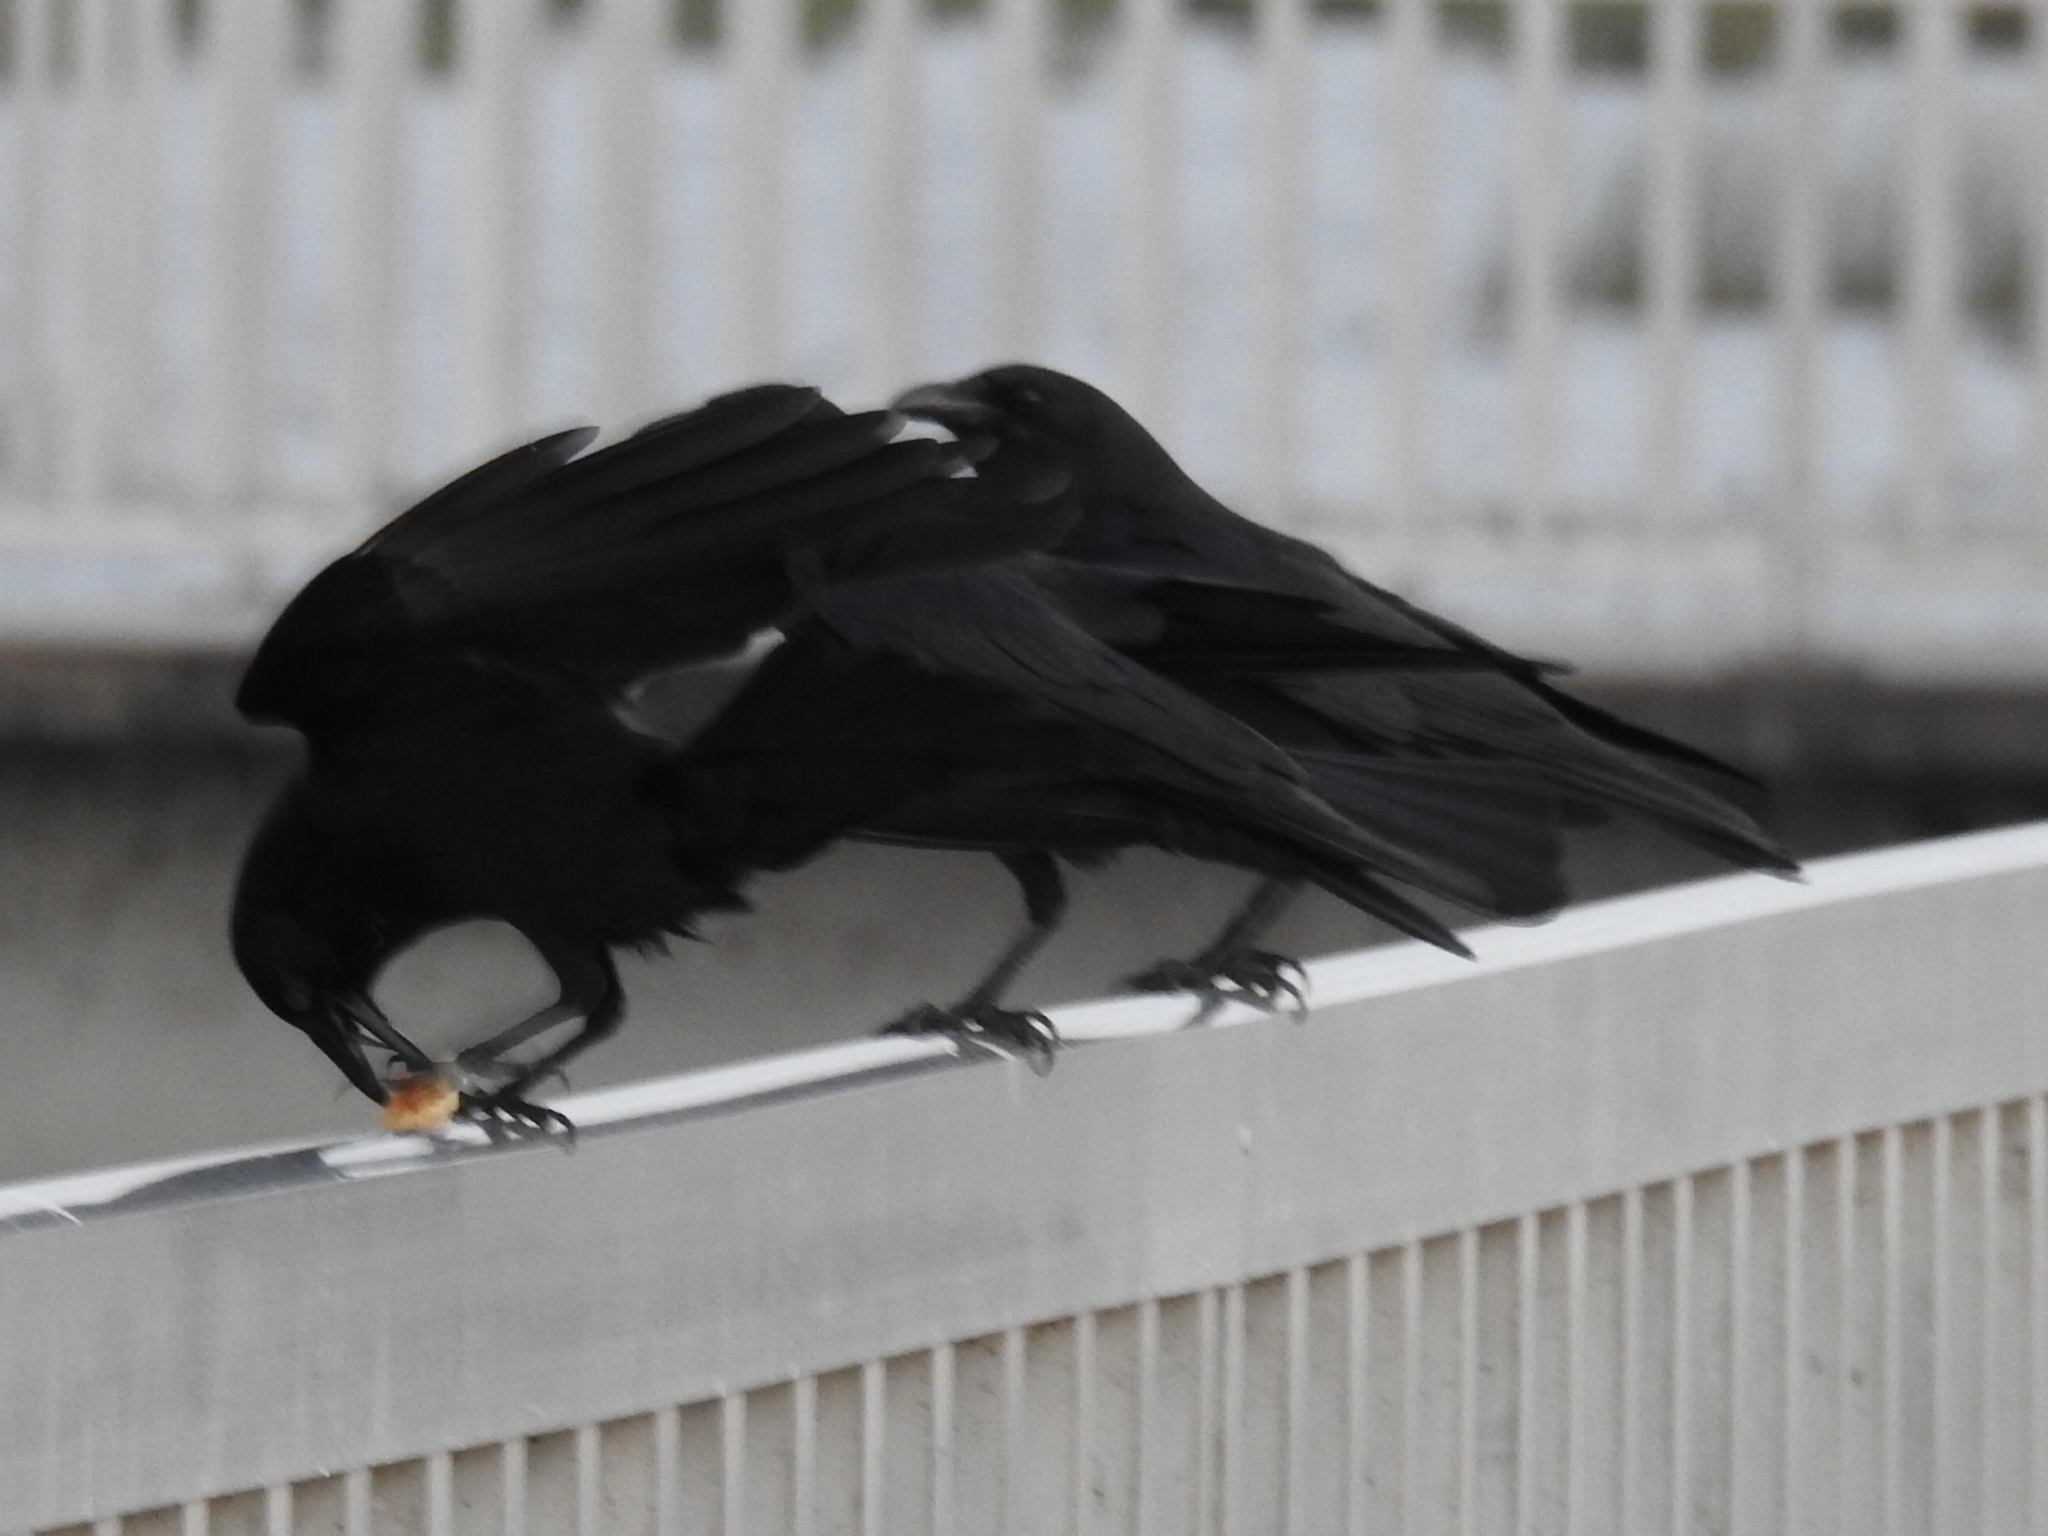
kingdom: Animalia
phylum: Chordata
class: Aves
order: Passeriformes
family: Corvidae
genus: Corvus
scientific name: Corvus ossifragus
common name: Fish crow
